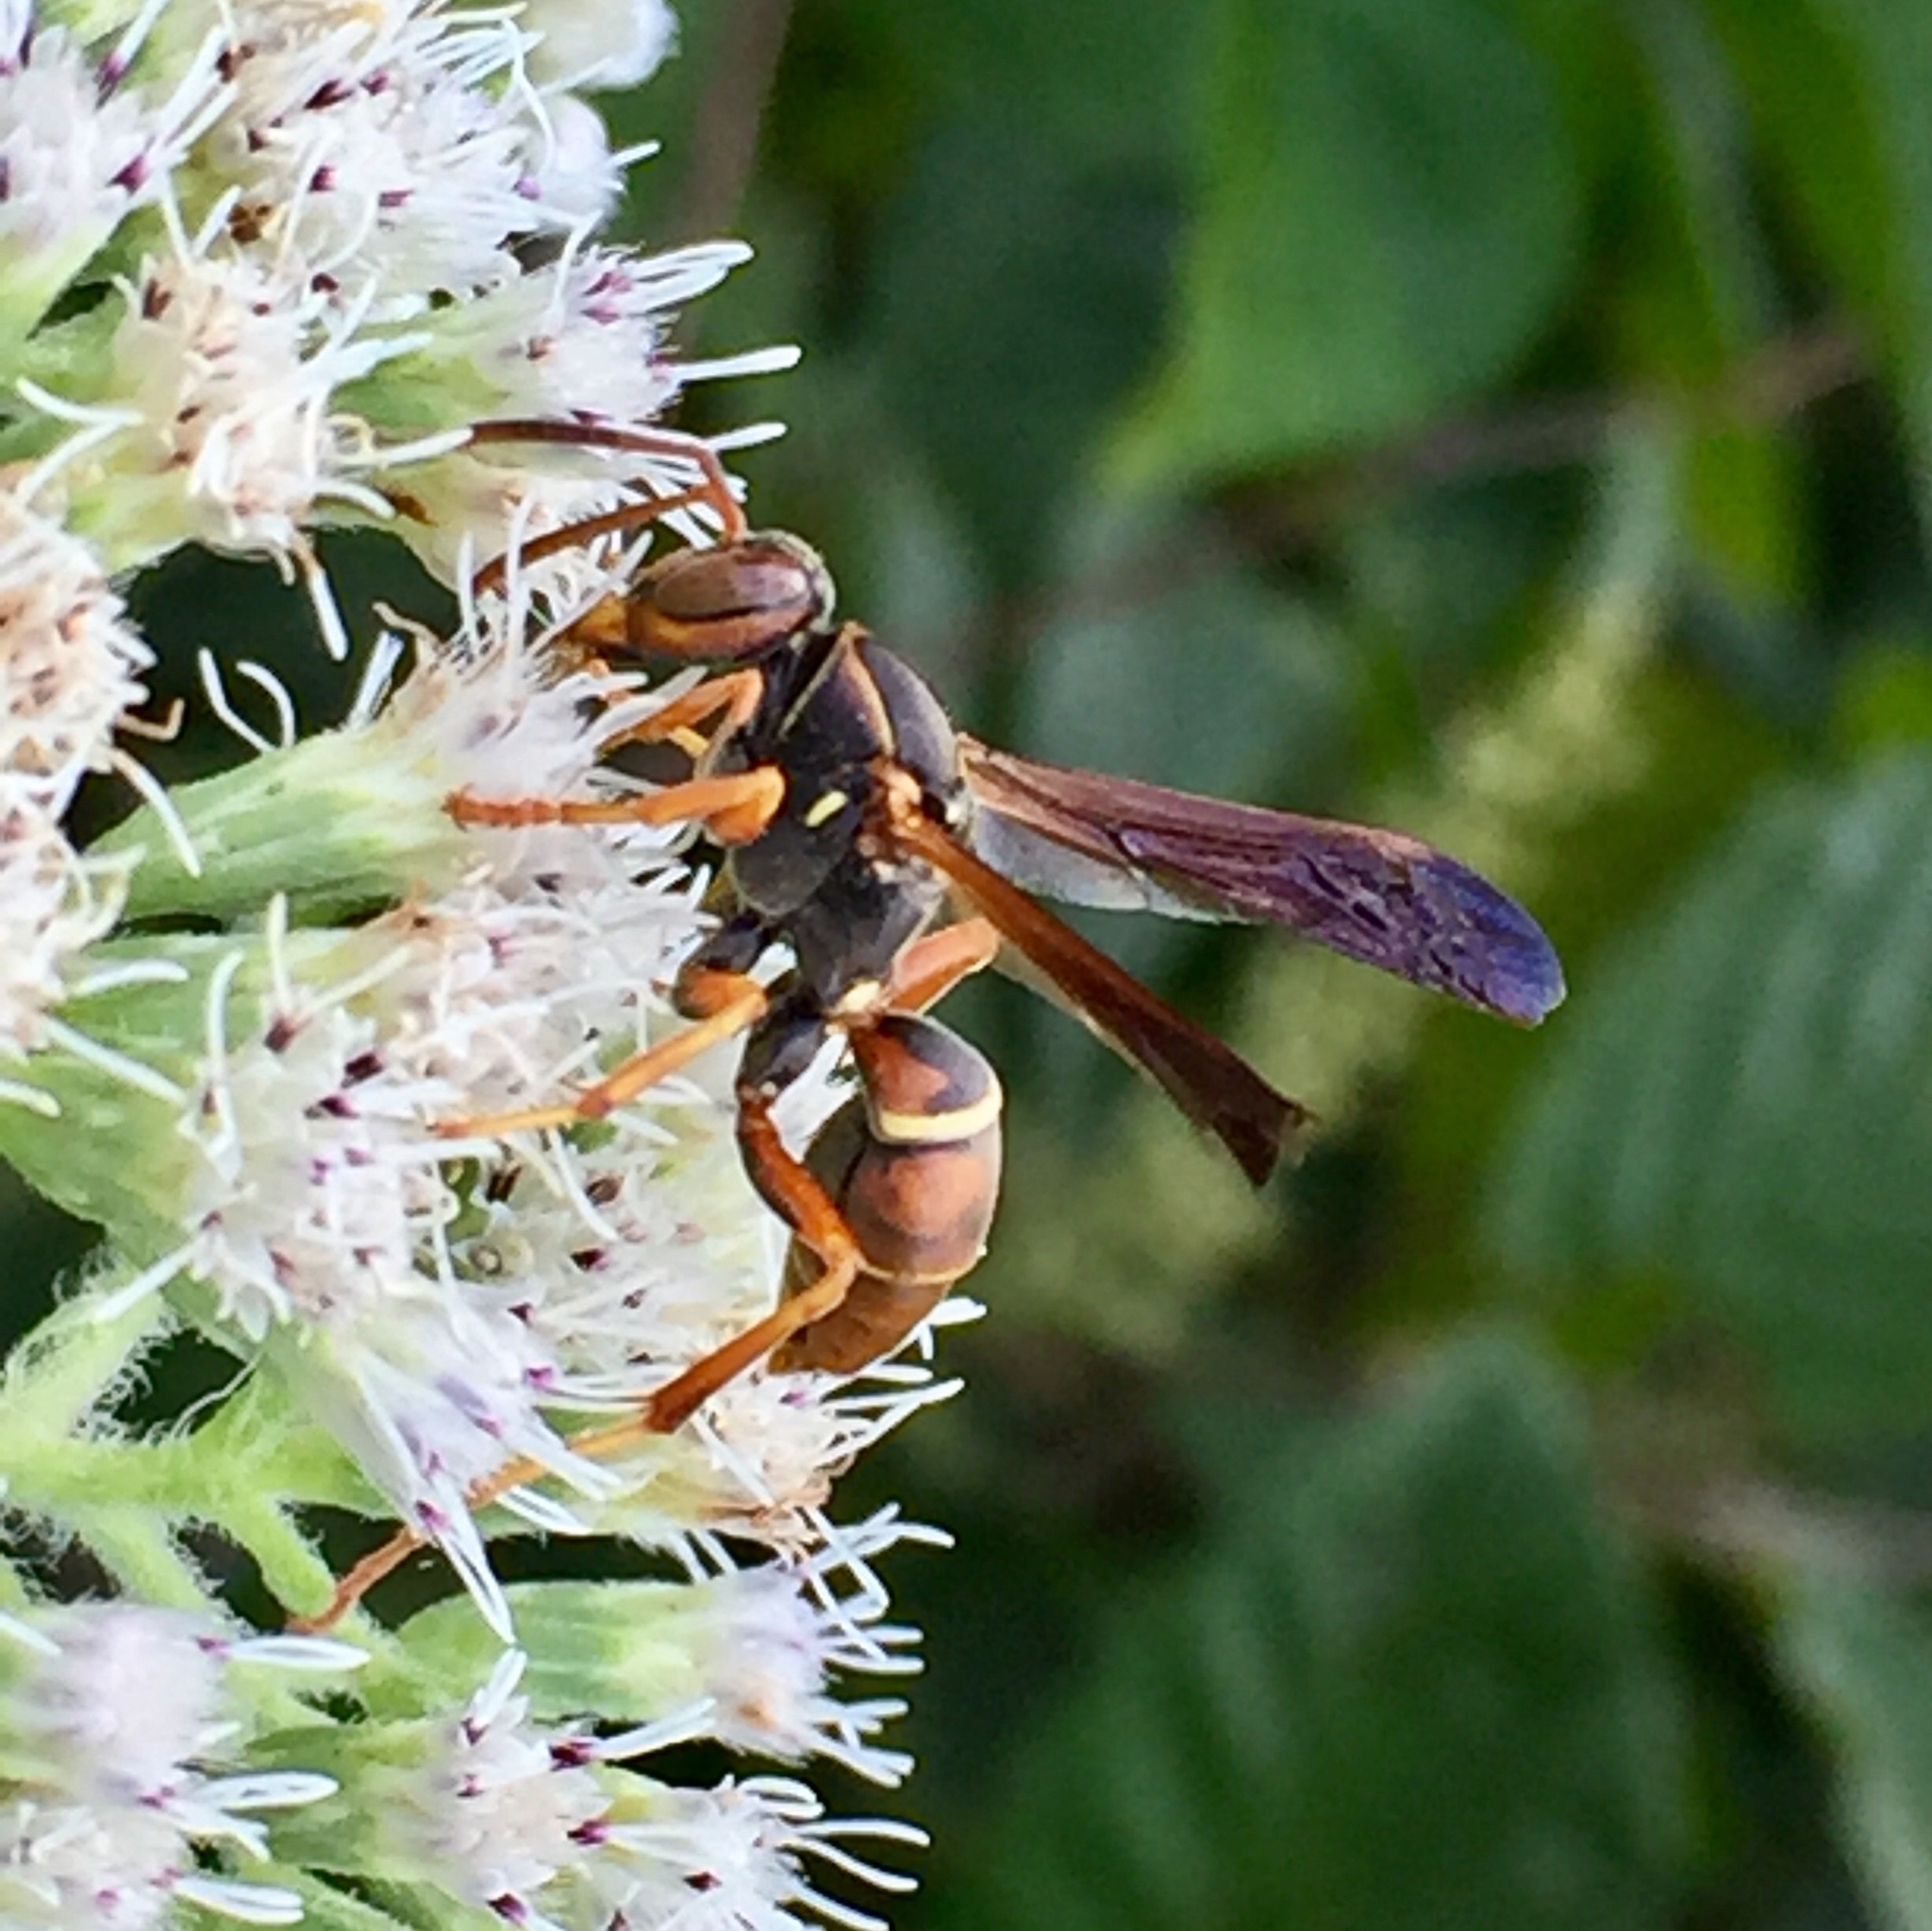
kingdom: Animalia
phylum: Arthropoda
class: Insecta
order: Hymenoptera
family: Eumenidae
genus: Polistes
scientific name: Polistes fuscatus
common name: Dark paper wasp
